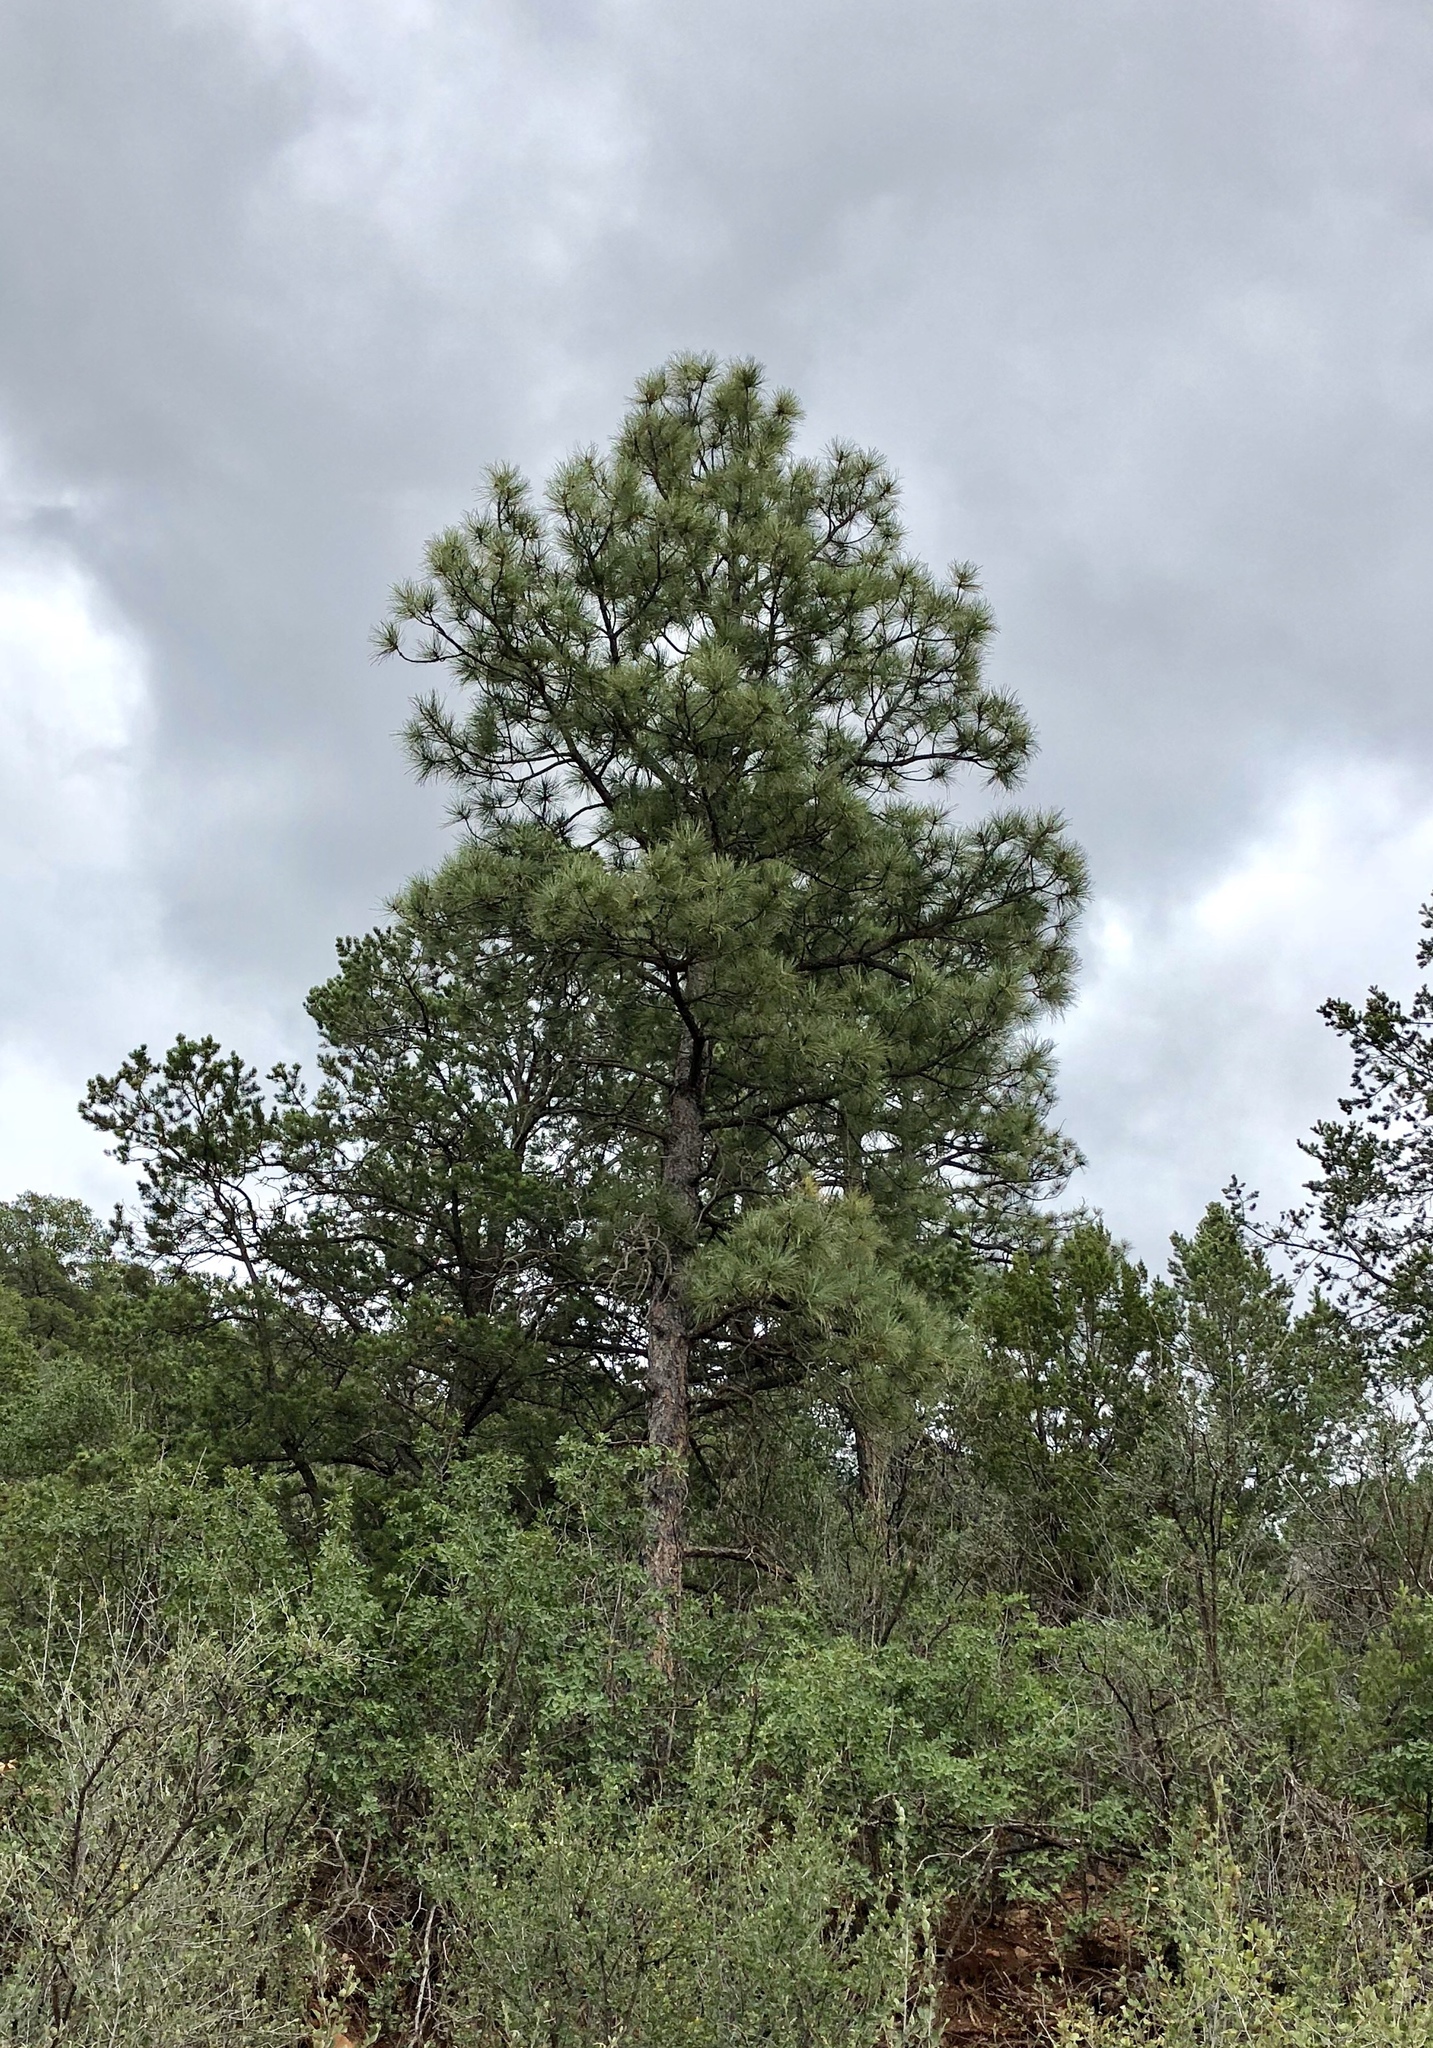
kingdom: Plantae
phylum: Tracheophyta
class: Pinopsida
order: Pinales
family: Pinaceae
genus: Pinus
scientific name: Pinus ponderosa
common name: Western yellow-pine
